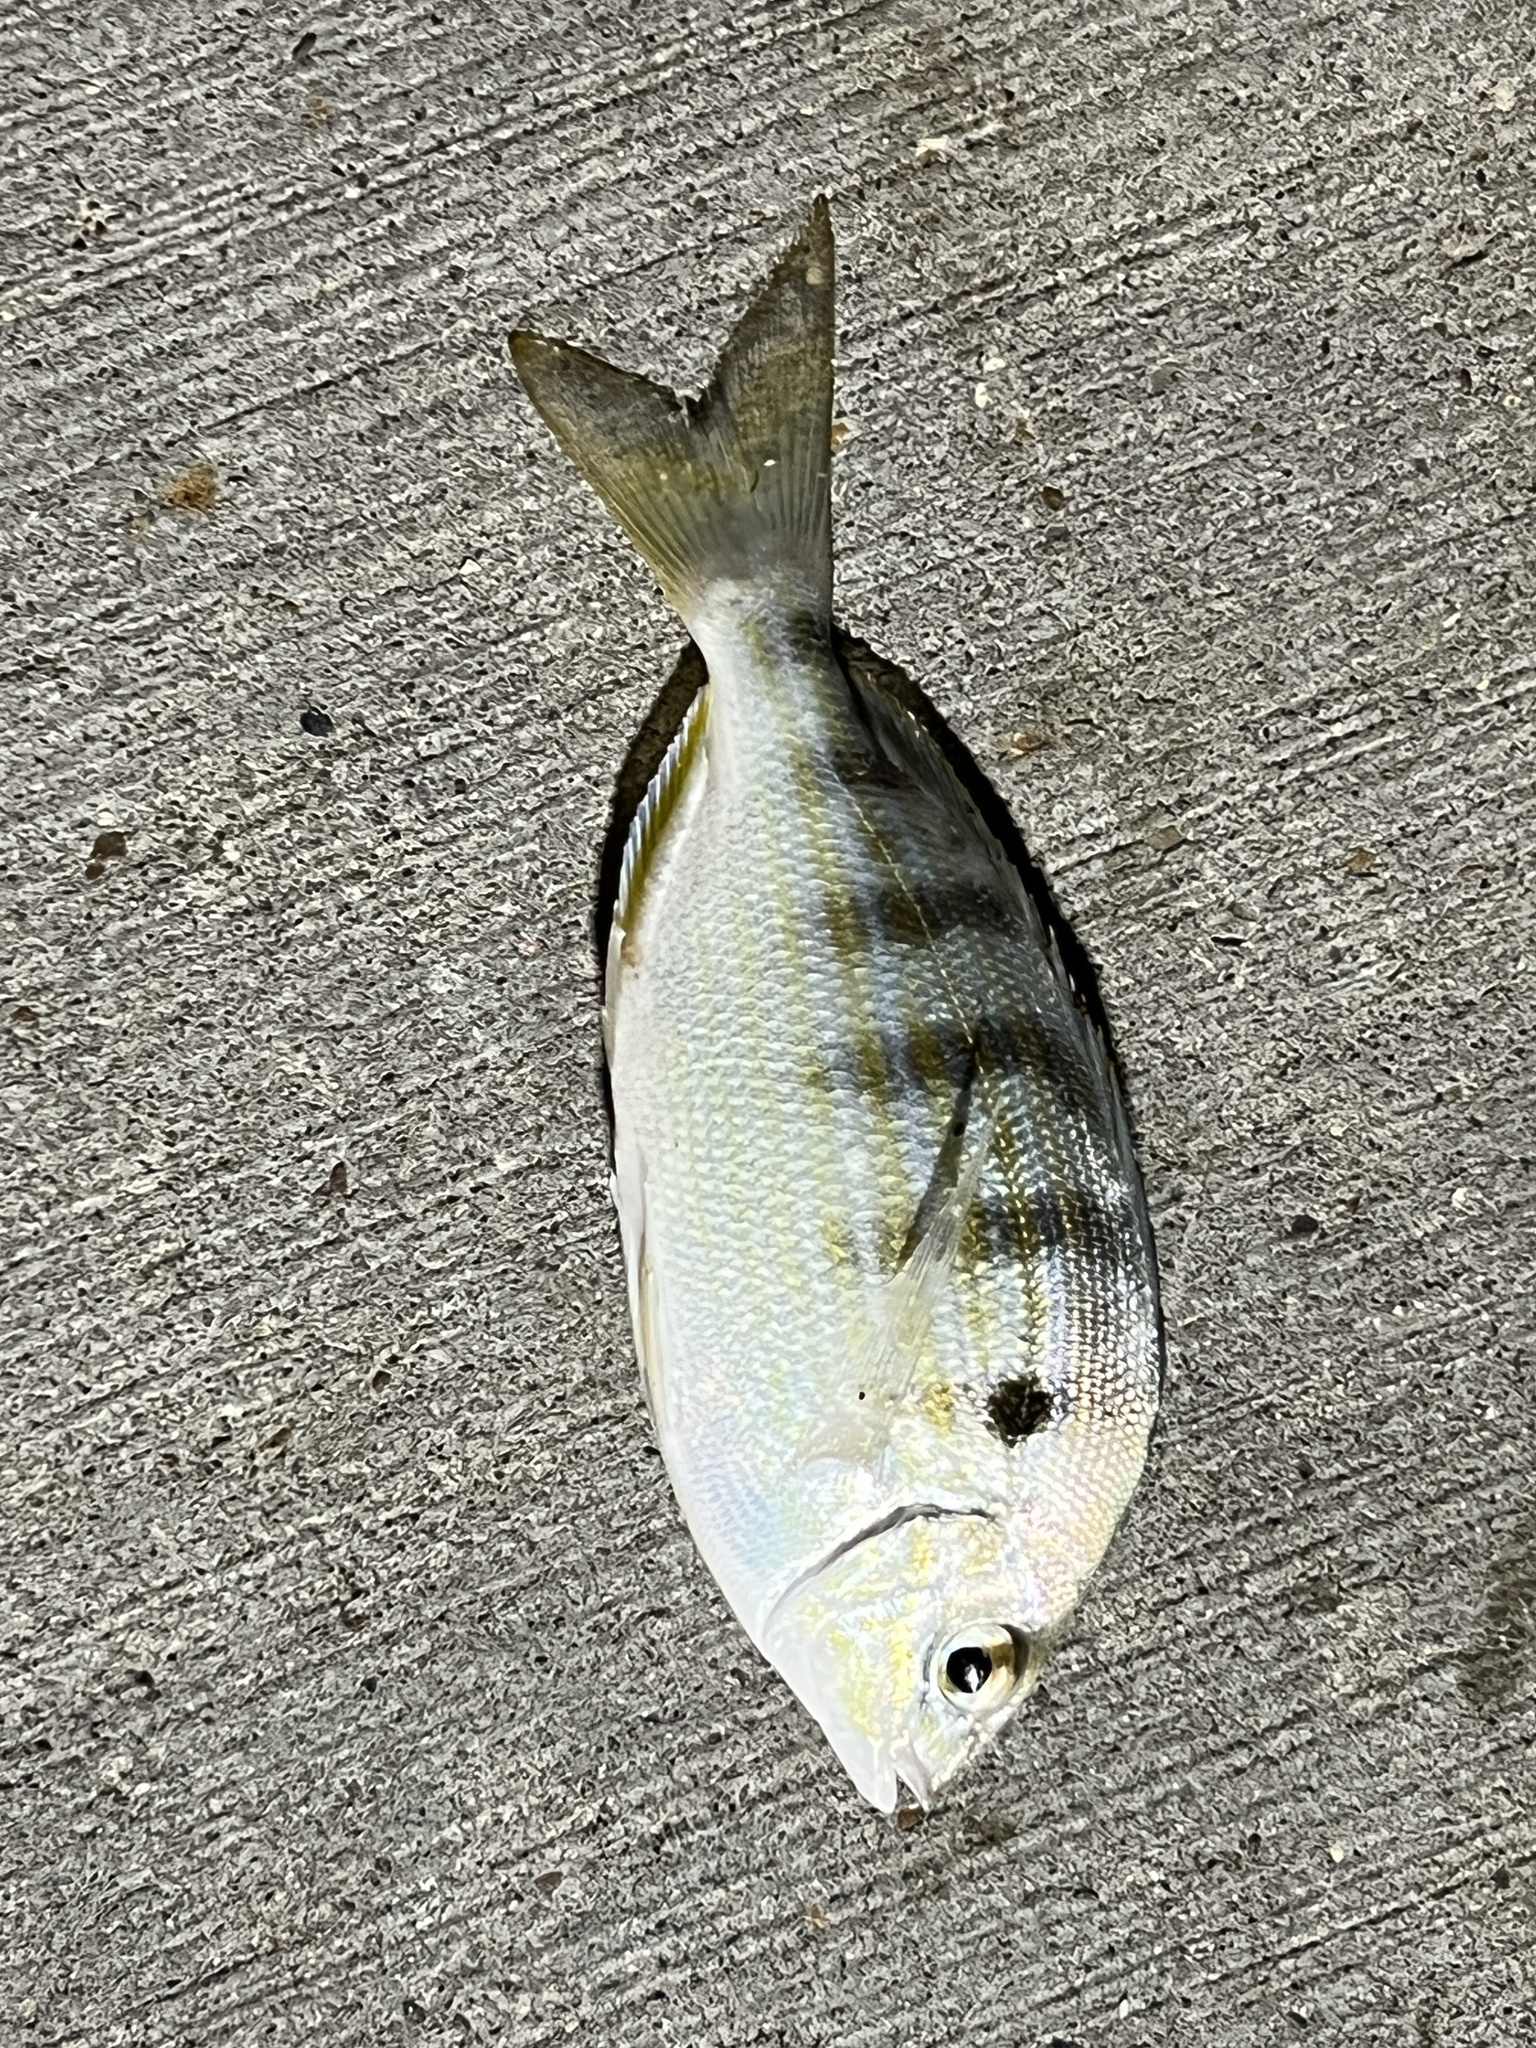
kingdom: Animalia
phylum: Chordata
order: Perciformes
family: Sparidae
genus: Lagodon
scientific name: Lagodon rhomboides
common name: Pinfish
